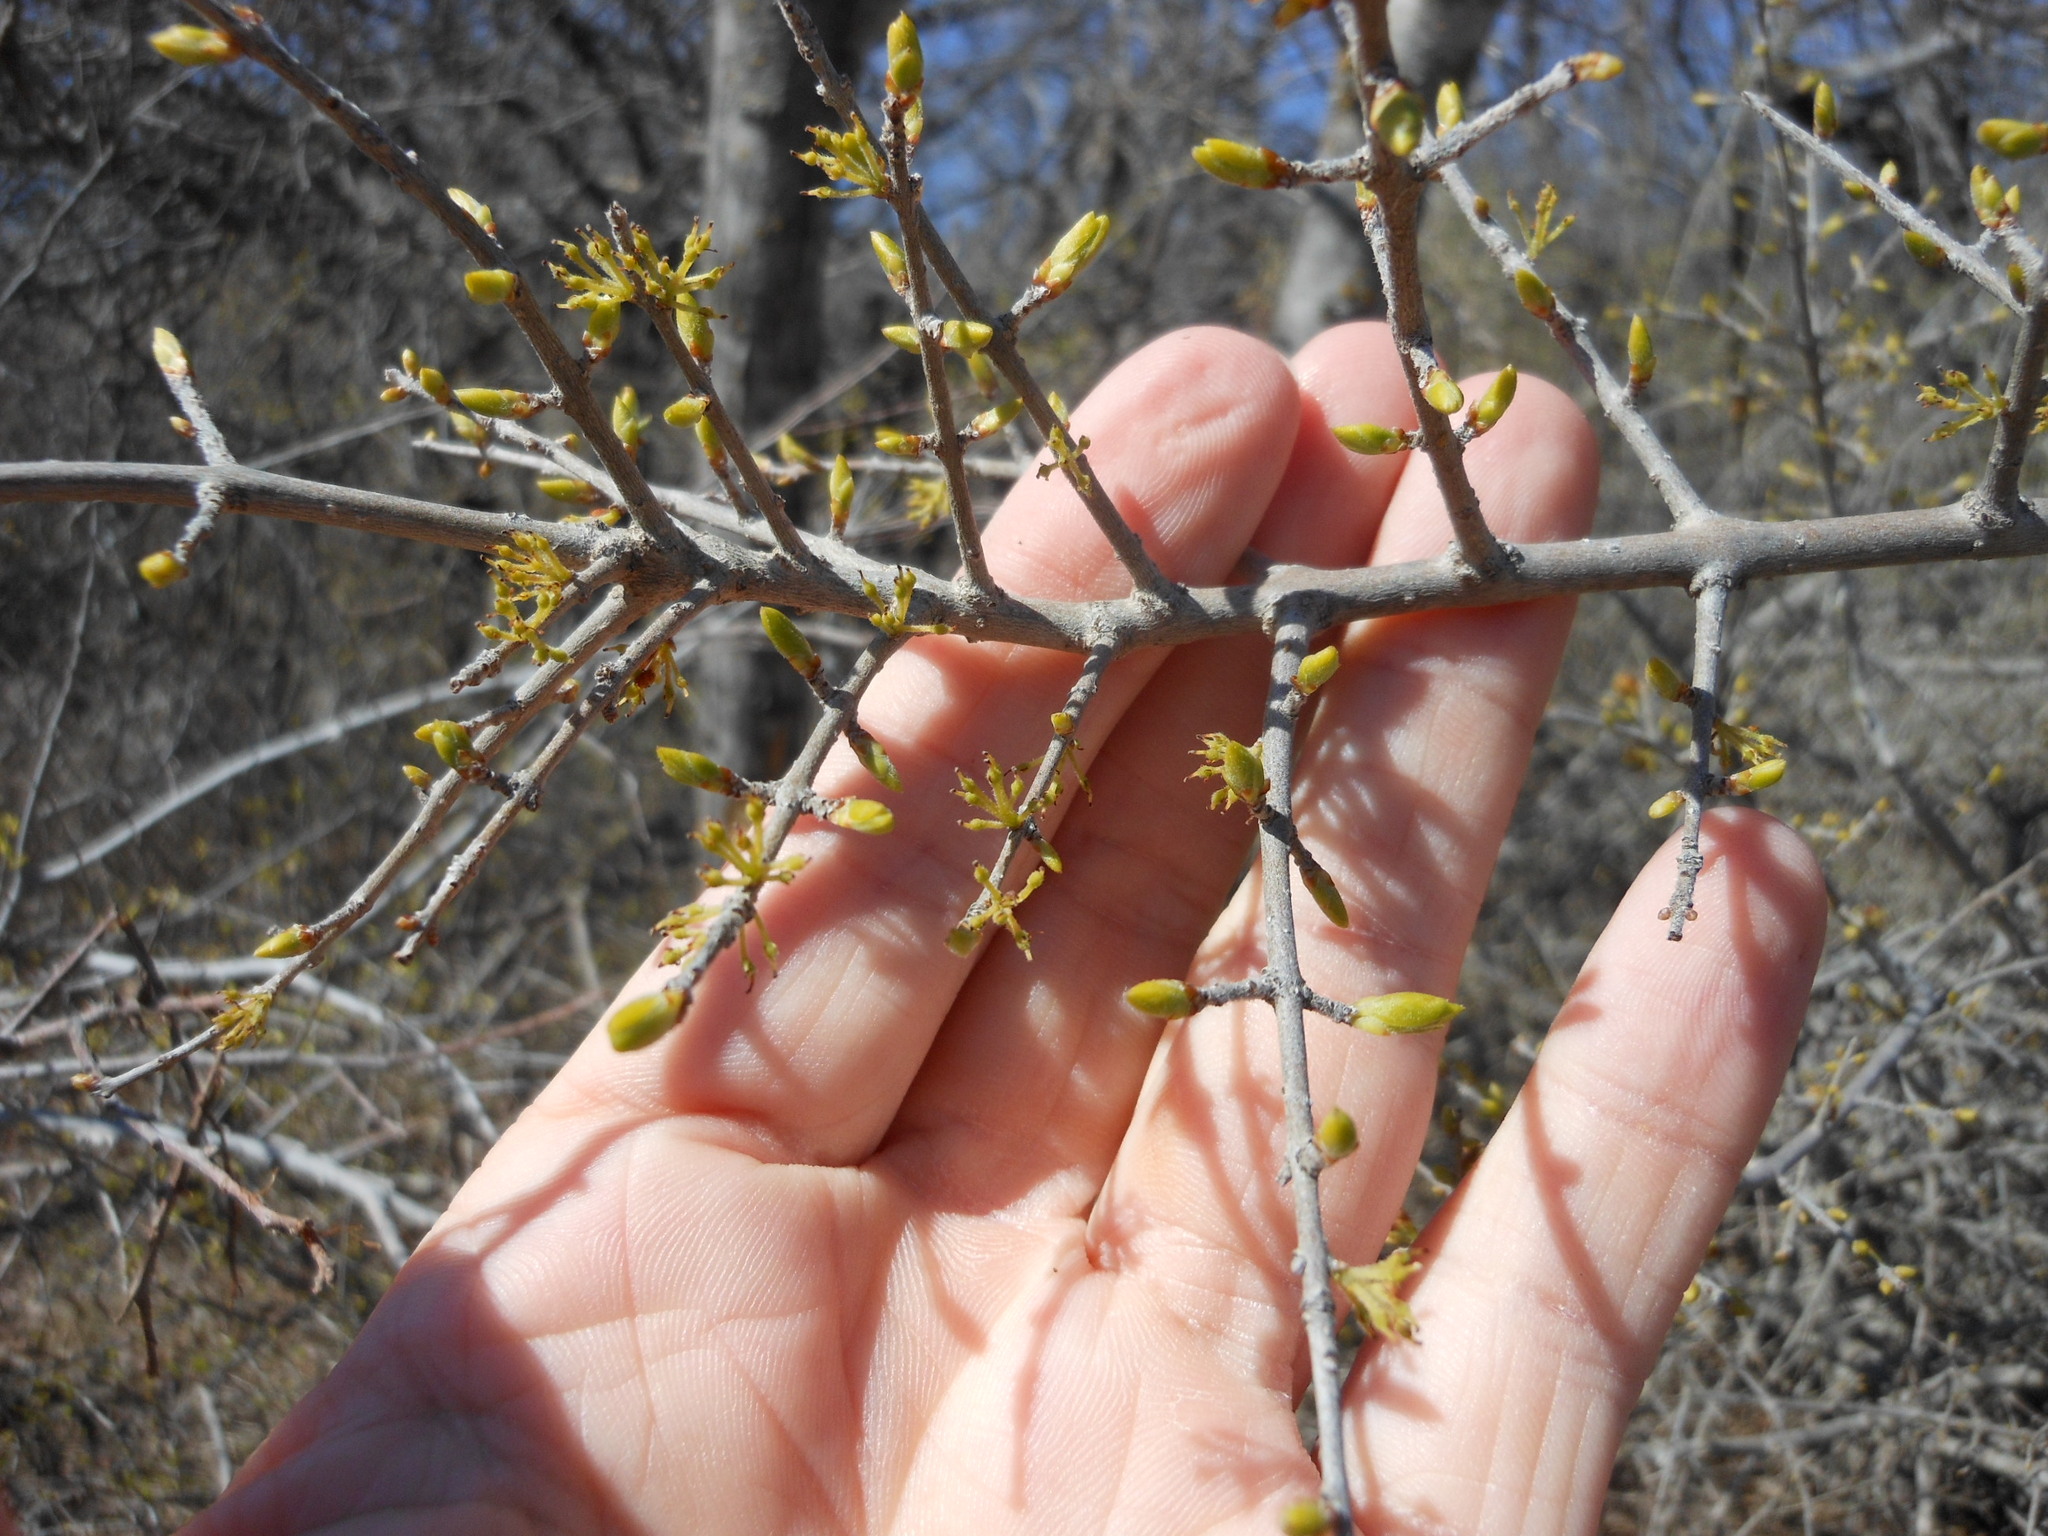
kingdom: Plantae
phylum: Tracheophyta
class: Magnoliopsida
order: Lamiales
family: Oleaceae
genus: Forestiera
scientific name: Forestiera pubescens
